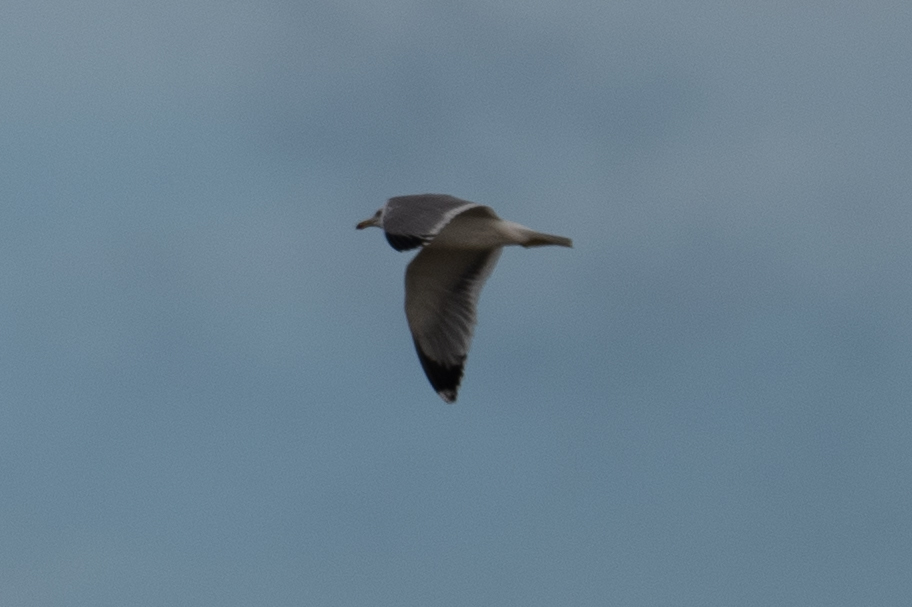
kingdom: Animalia
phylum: Chordata
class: Aves
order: Charadriiformes
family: Laridae
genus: Larus
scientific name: Larus californicus
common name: California gull
